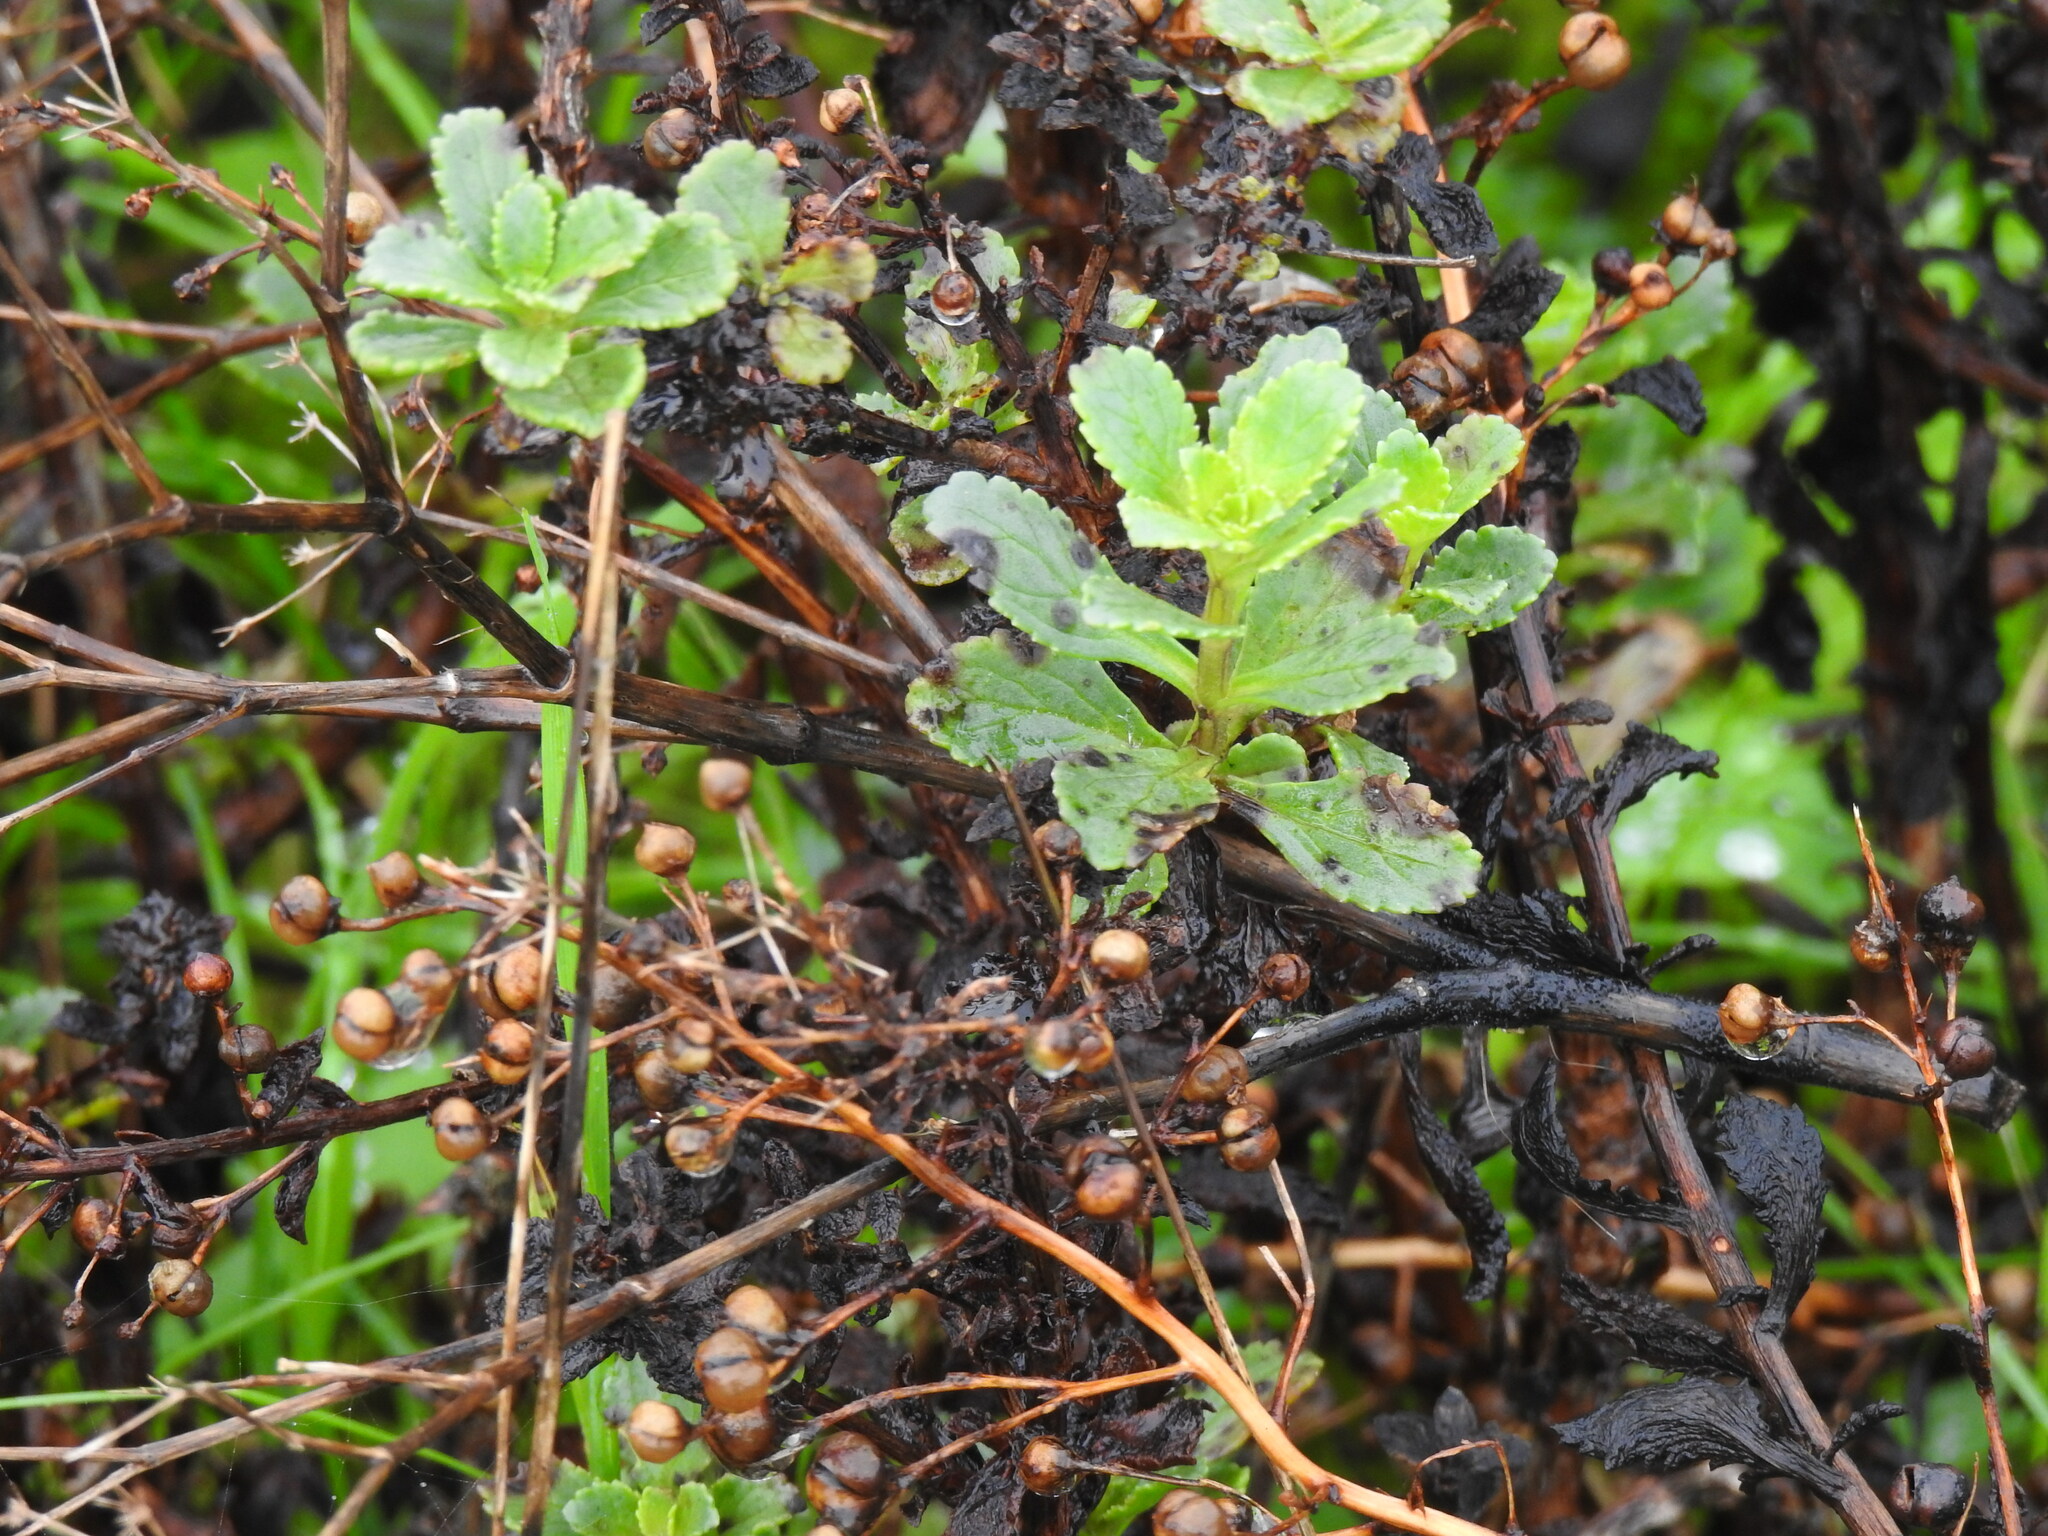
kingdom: Plantae
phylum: Tracheophyta
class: Magnoliopsida
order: Lamiales
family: Scrophulariaceae
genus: Scrophularia
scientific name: Scrophularia frutescens
